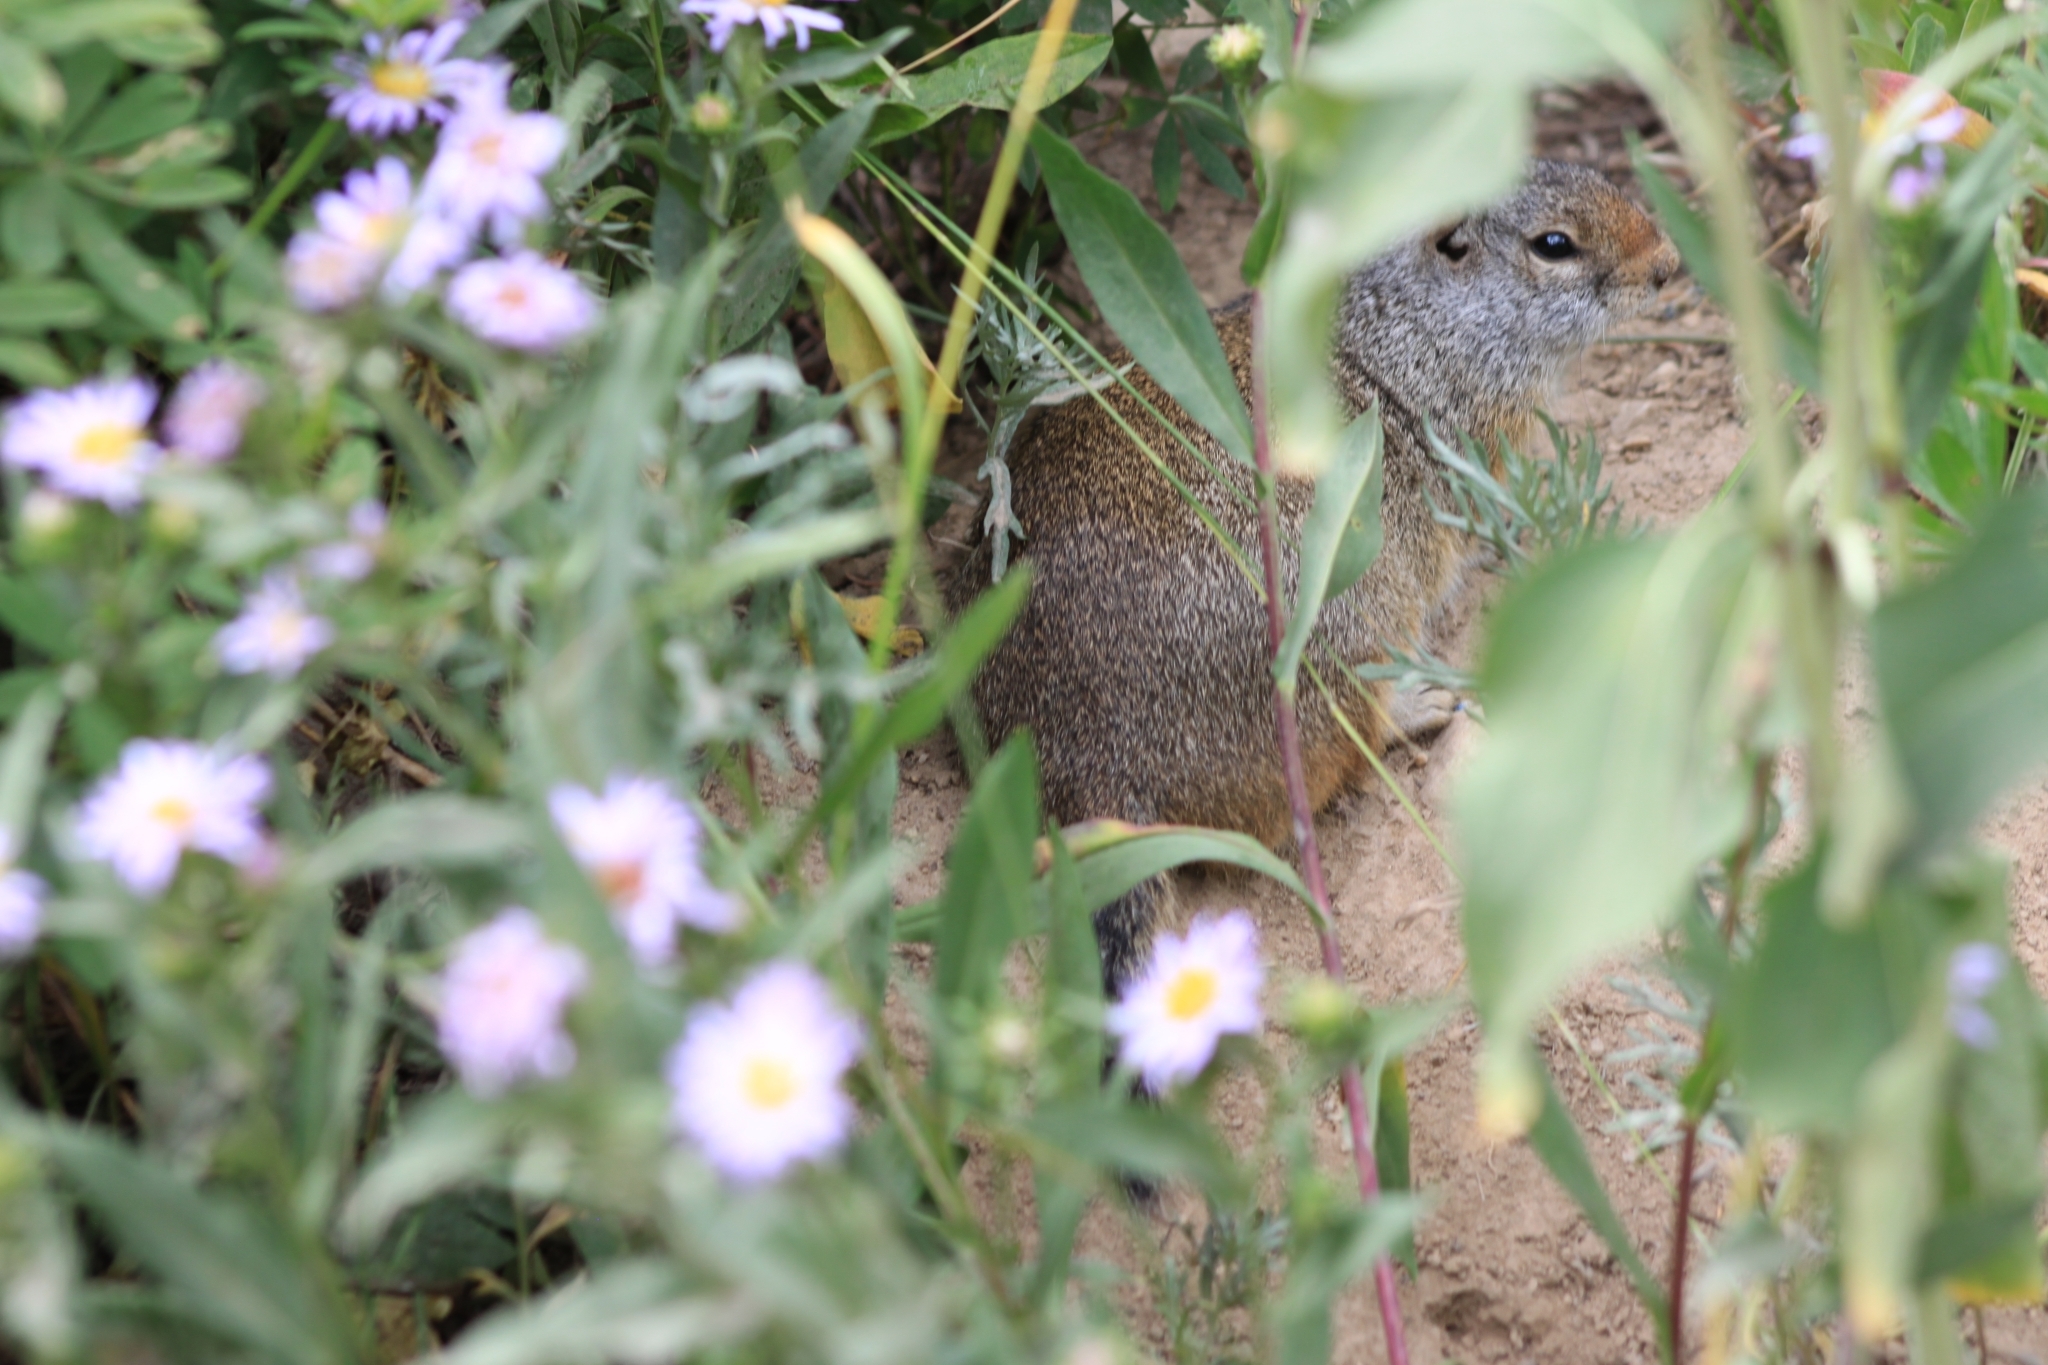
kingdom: Animalia
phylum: Chordata
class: Mammalia
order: Rodentia
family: Sciuridae
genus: Urocitellus
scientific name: Urocitellus armatus
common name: Uinta ground squirrel
